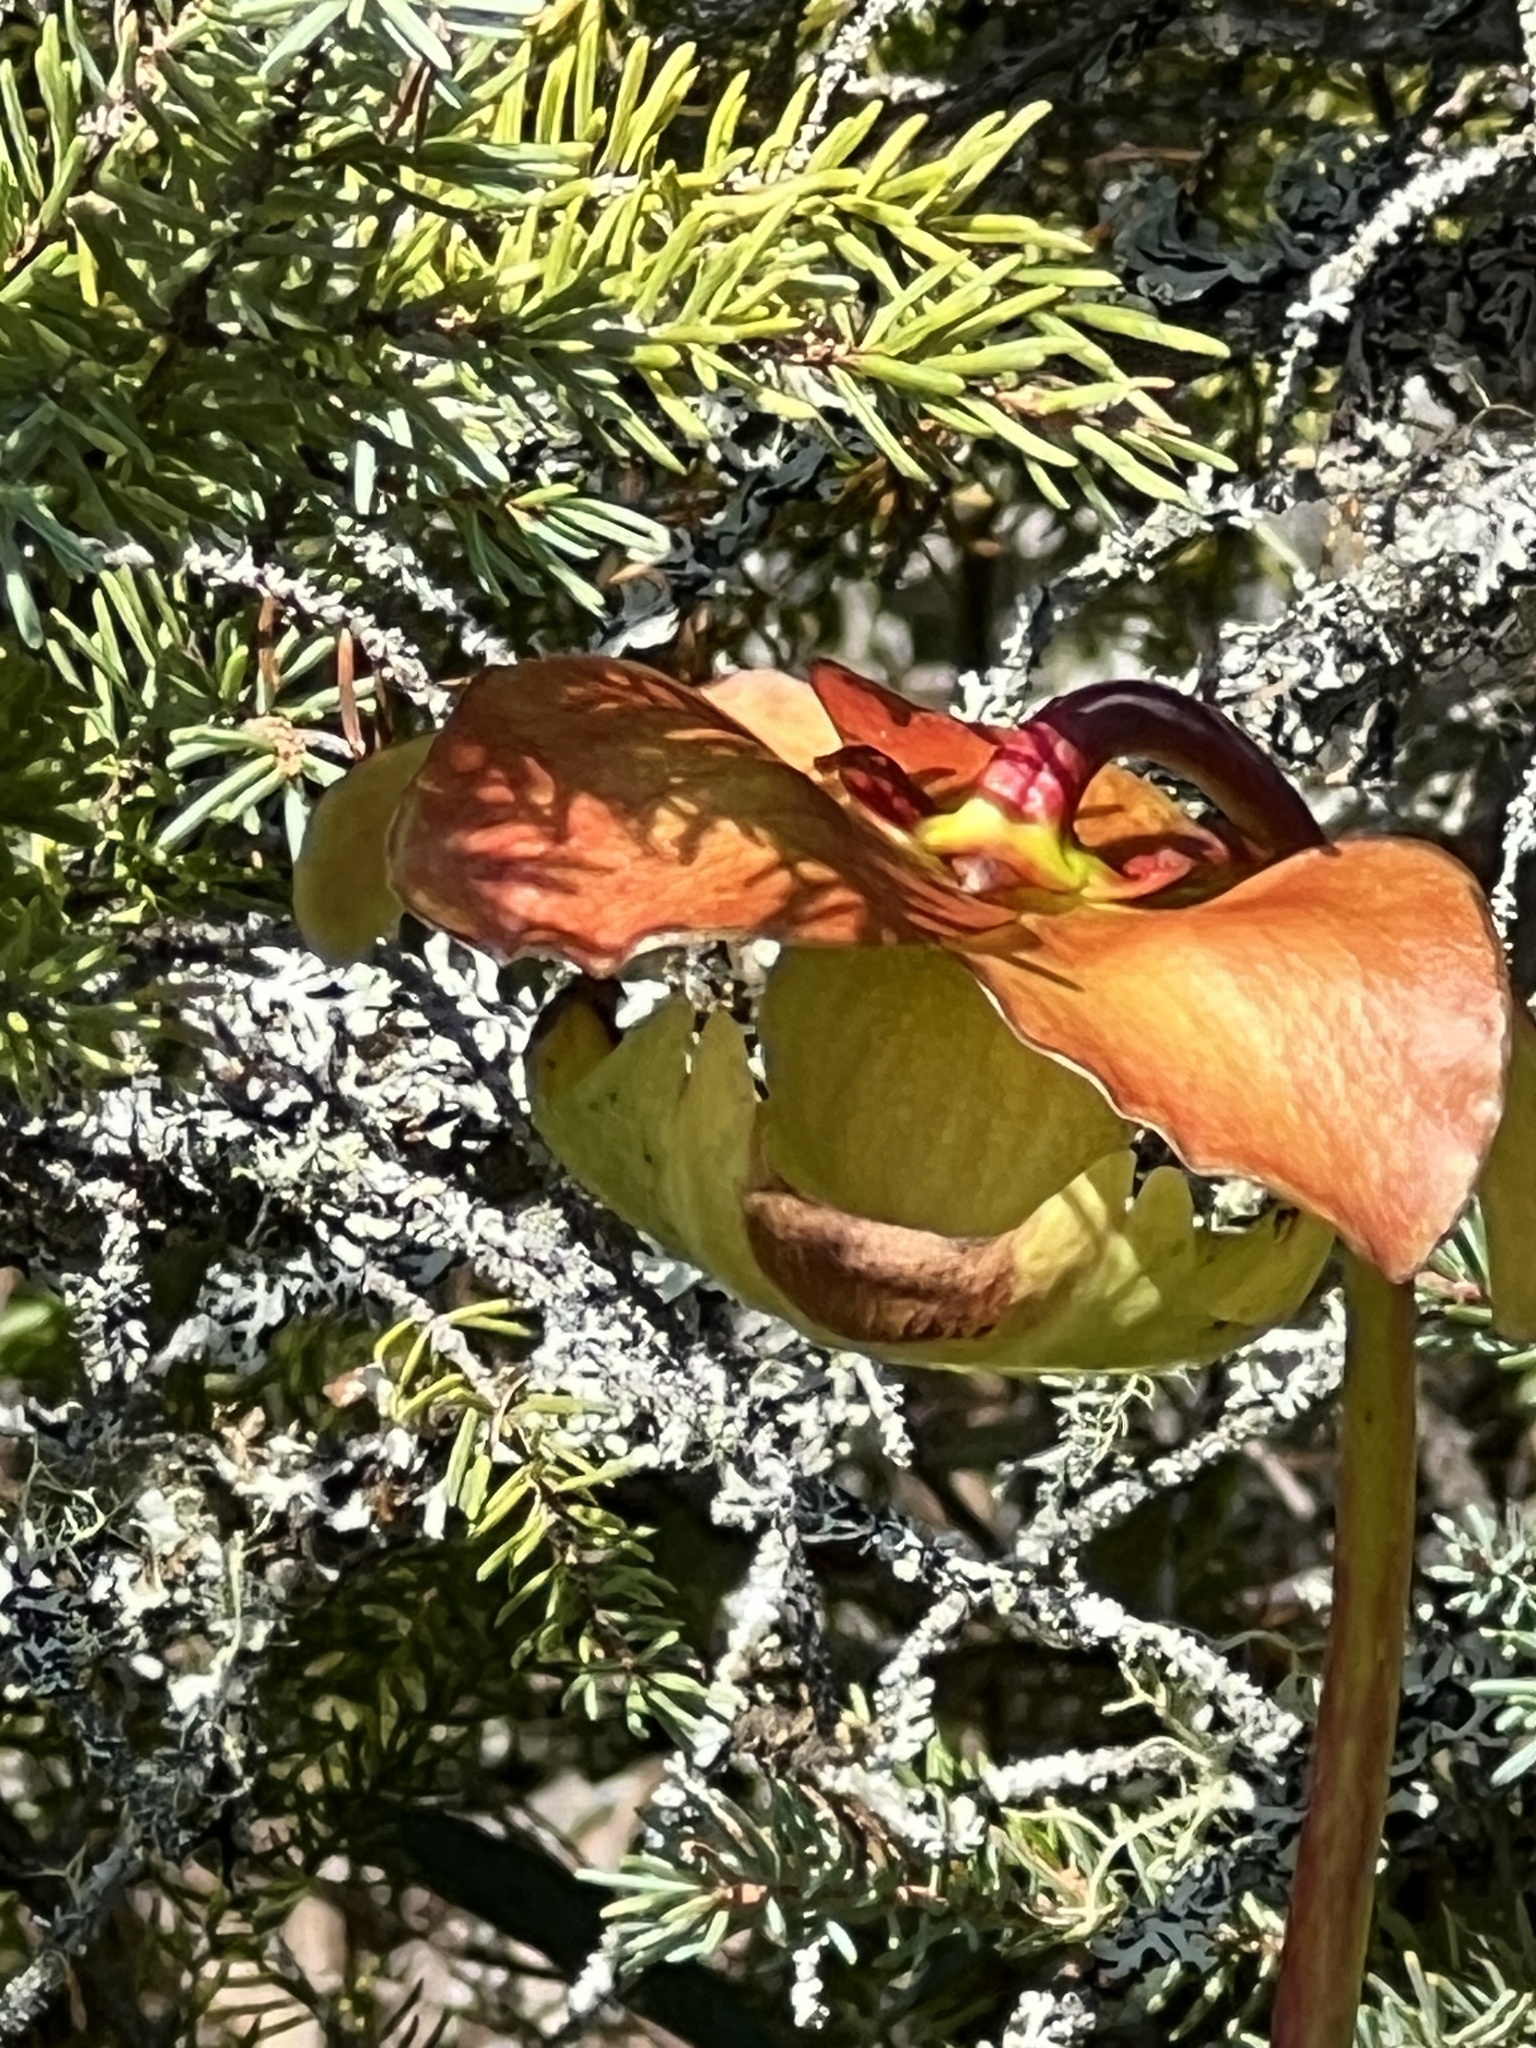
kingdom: Plantae
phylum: Tracheophyta
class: Magnoliopsida
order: Ericales
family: Sarraceniaceae
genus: Sarracenia
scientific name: Sarracenia purpurea
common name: Pitcherplant
